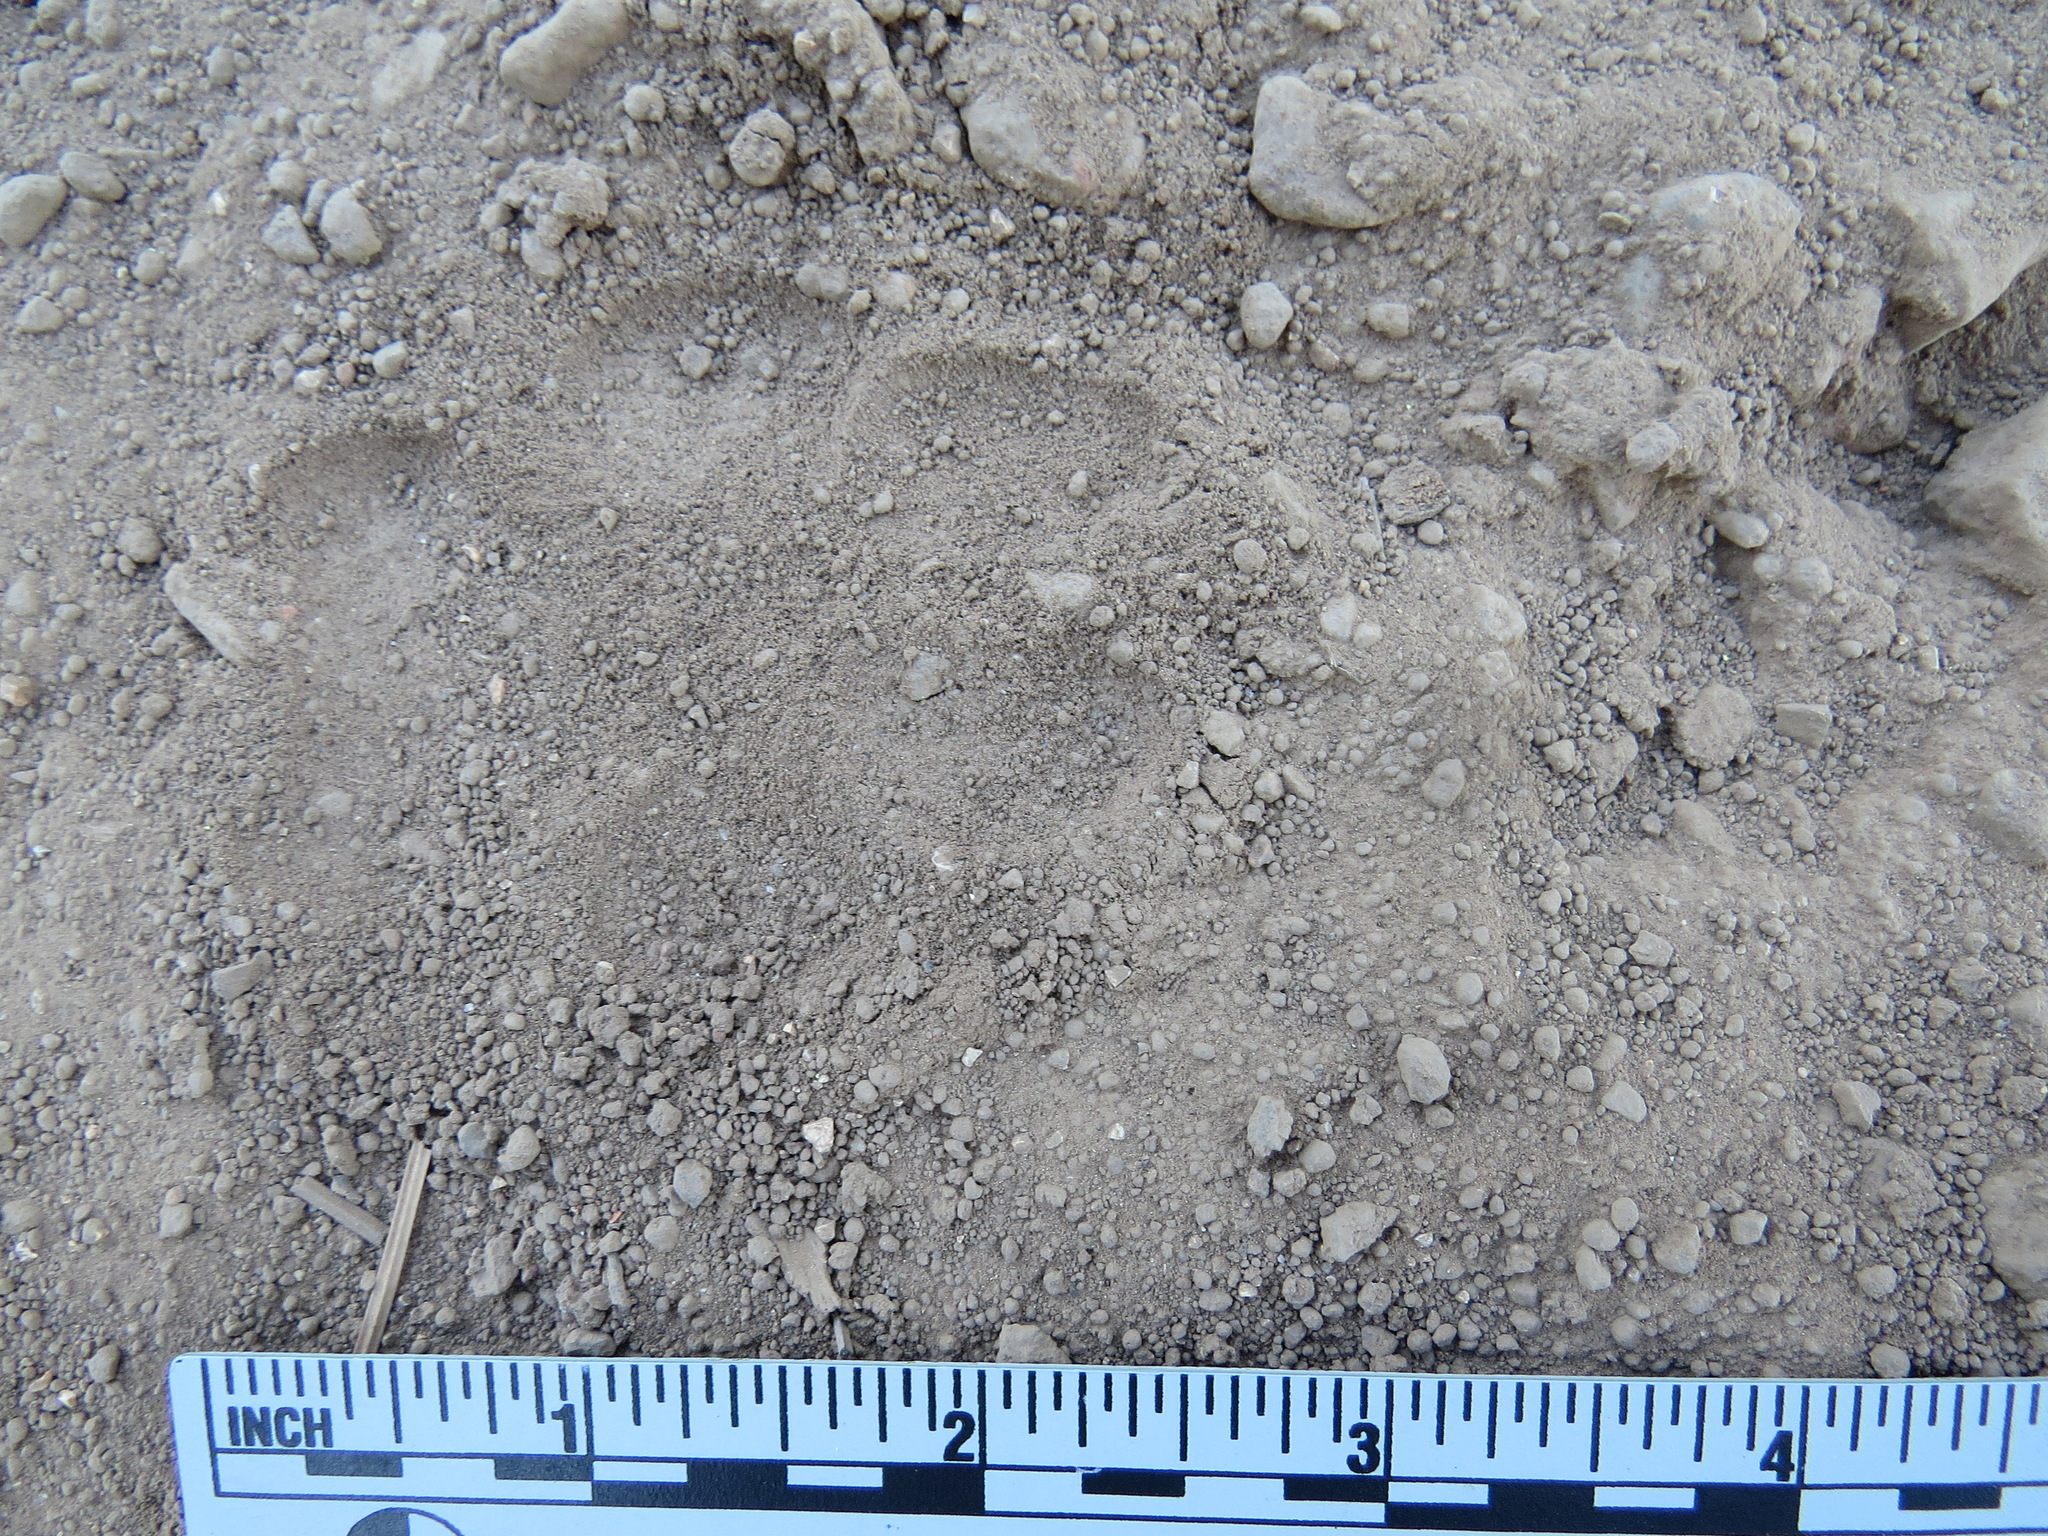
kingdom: Animalia
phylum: Chordata
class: Mammalia
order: Carnivora
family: Canidae
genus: Canis
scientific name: Canis latrans
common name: Coyote
